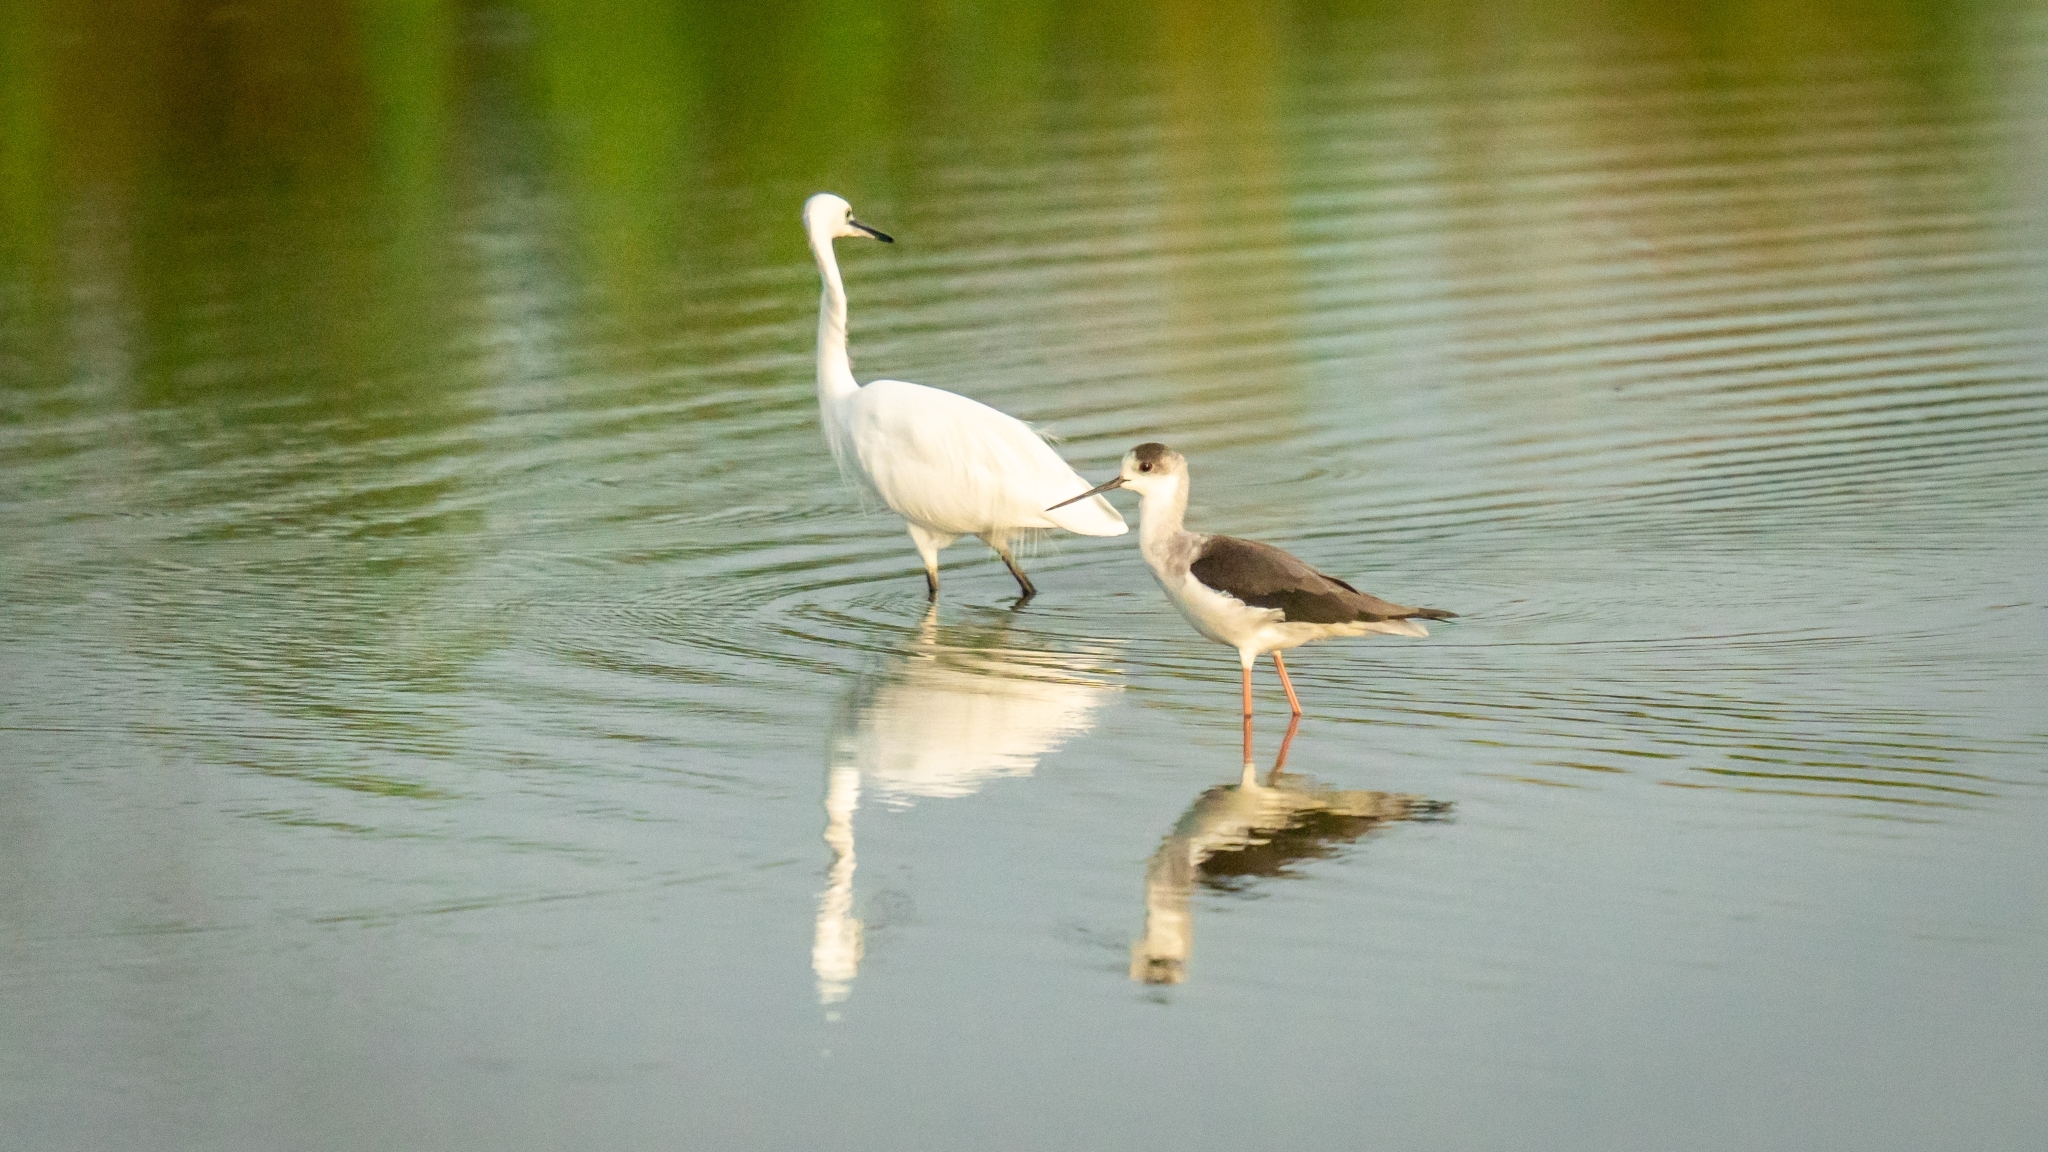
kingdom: Animalia
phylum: Chordata
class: Aves
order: Charadriiformes
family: Recurvirostridae
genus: Himantopus
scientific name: Himantopus himantopus
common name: Black-winged stilt
